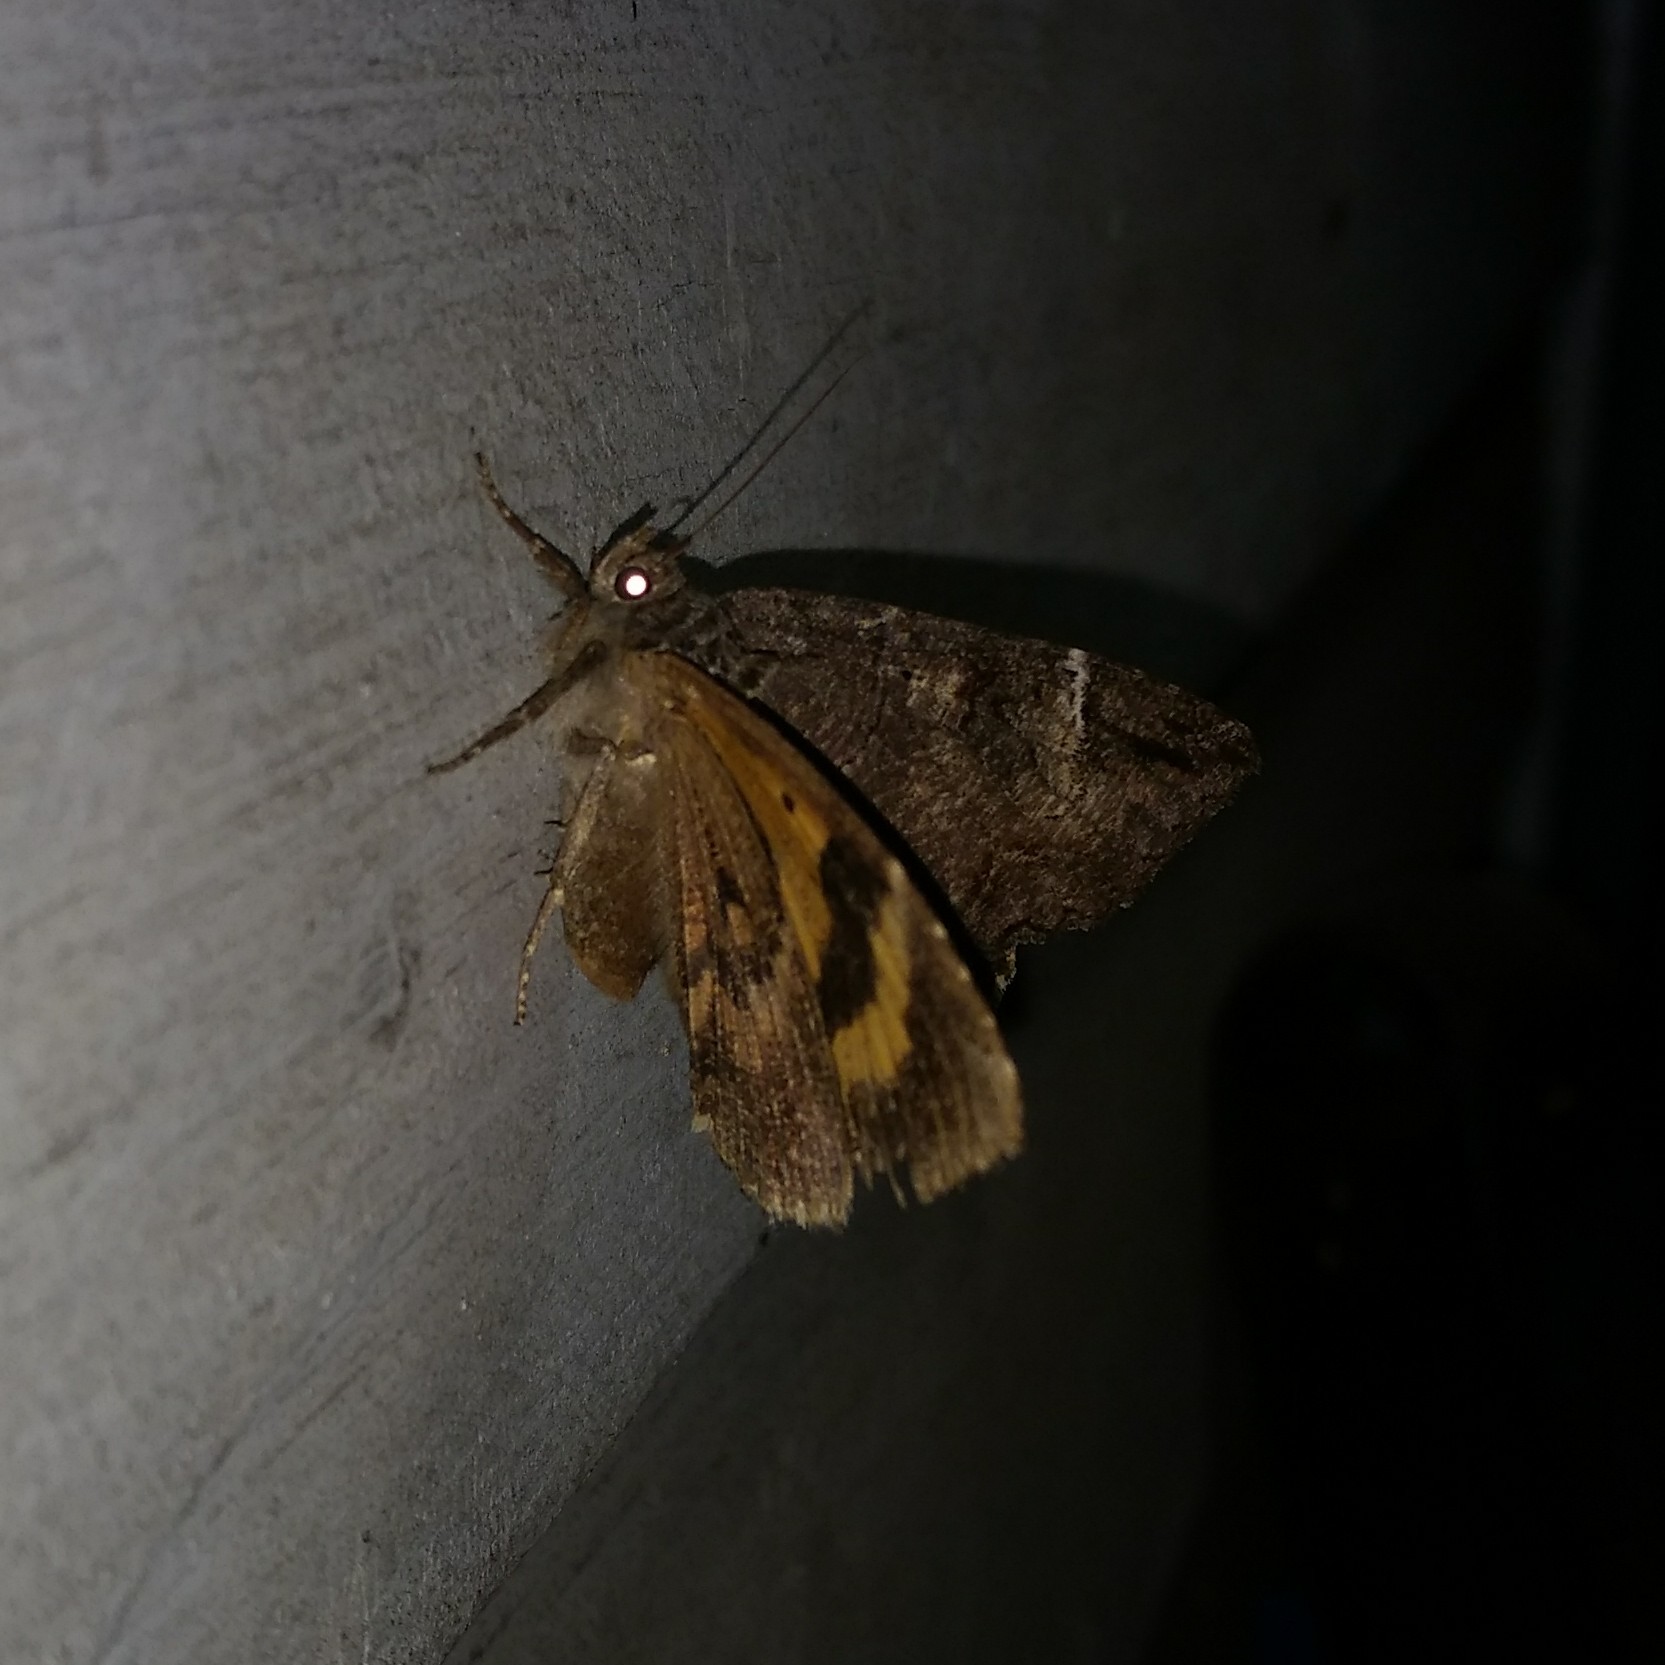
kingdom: Animalia
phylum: Arthropoda
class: Insecta
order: Lepidoptera
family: Erebidae
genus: Euparthenos
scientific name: Euparthenos nubilis
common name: Locust underwing
